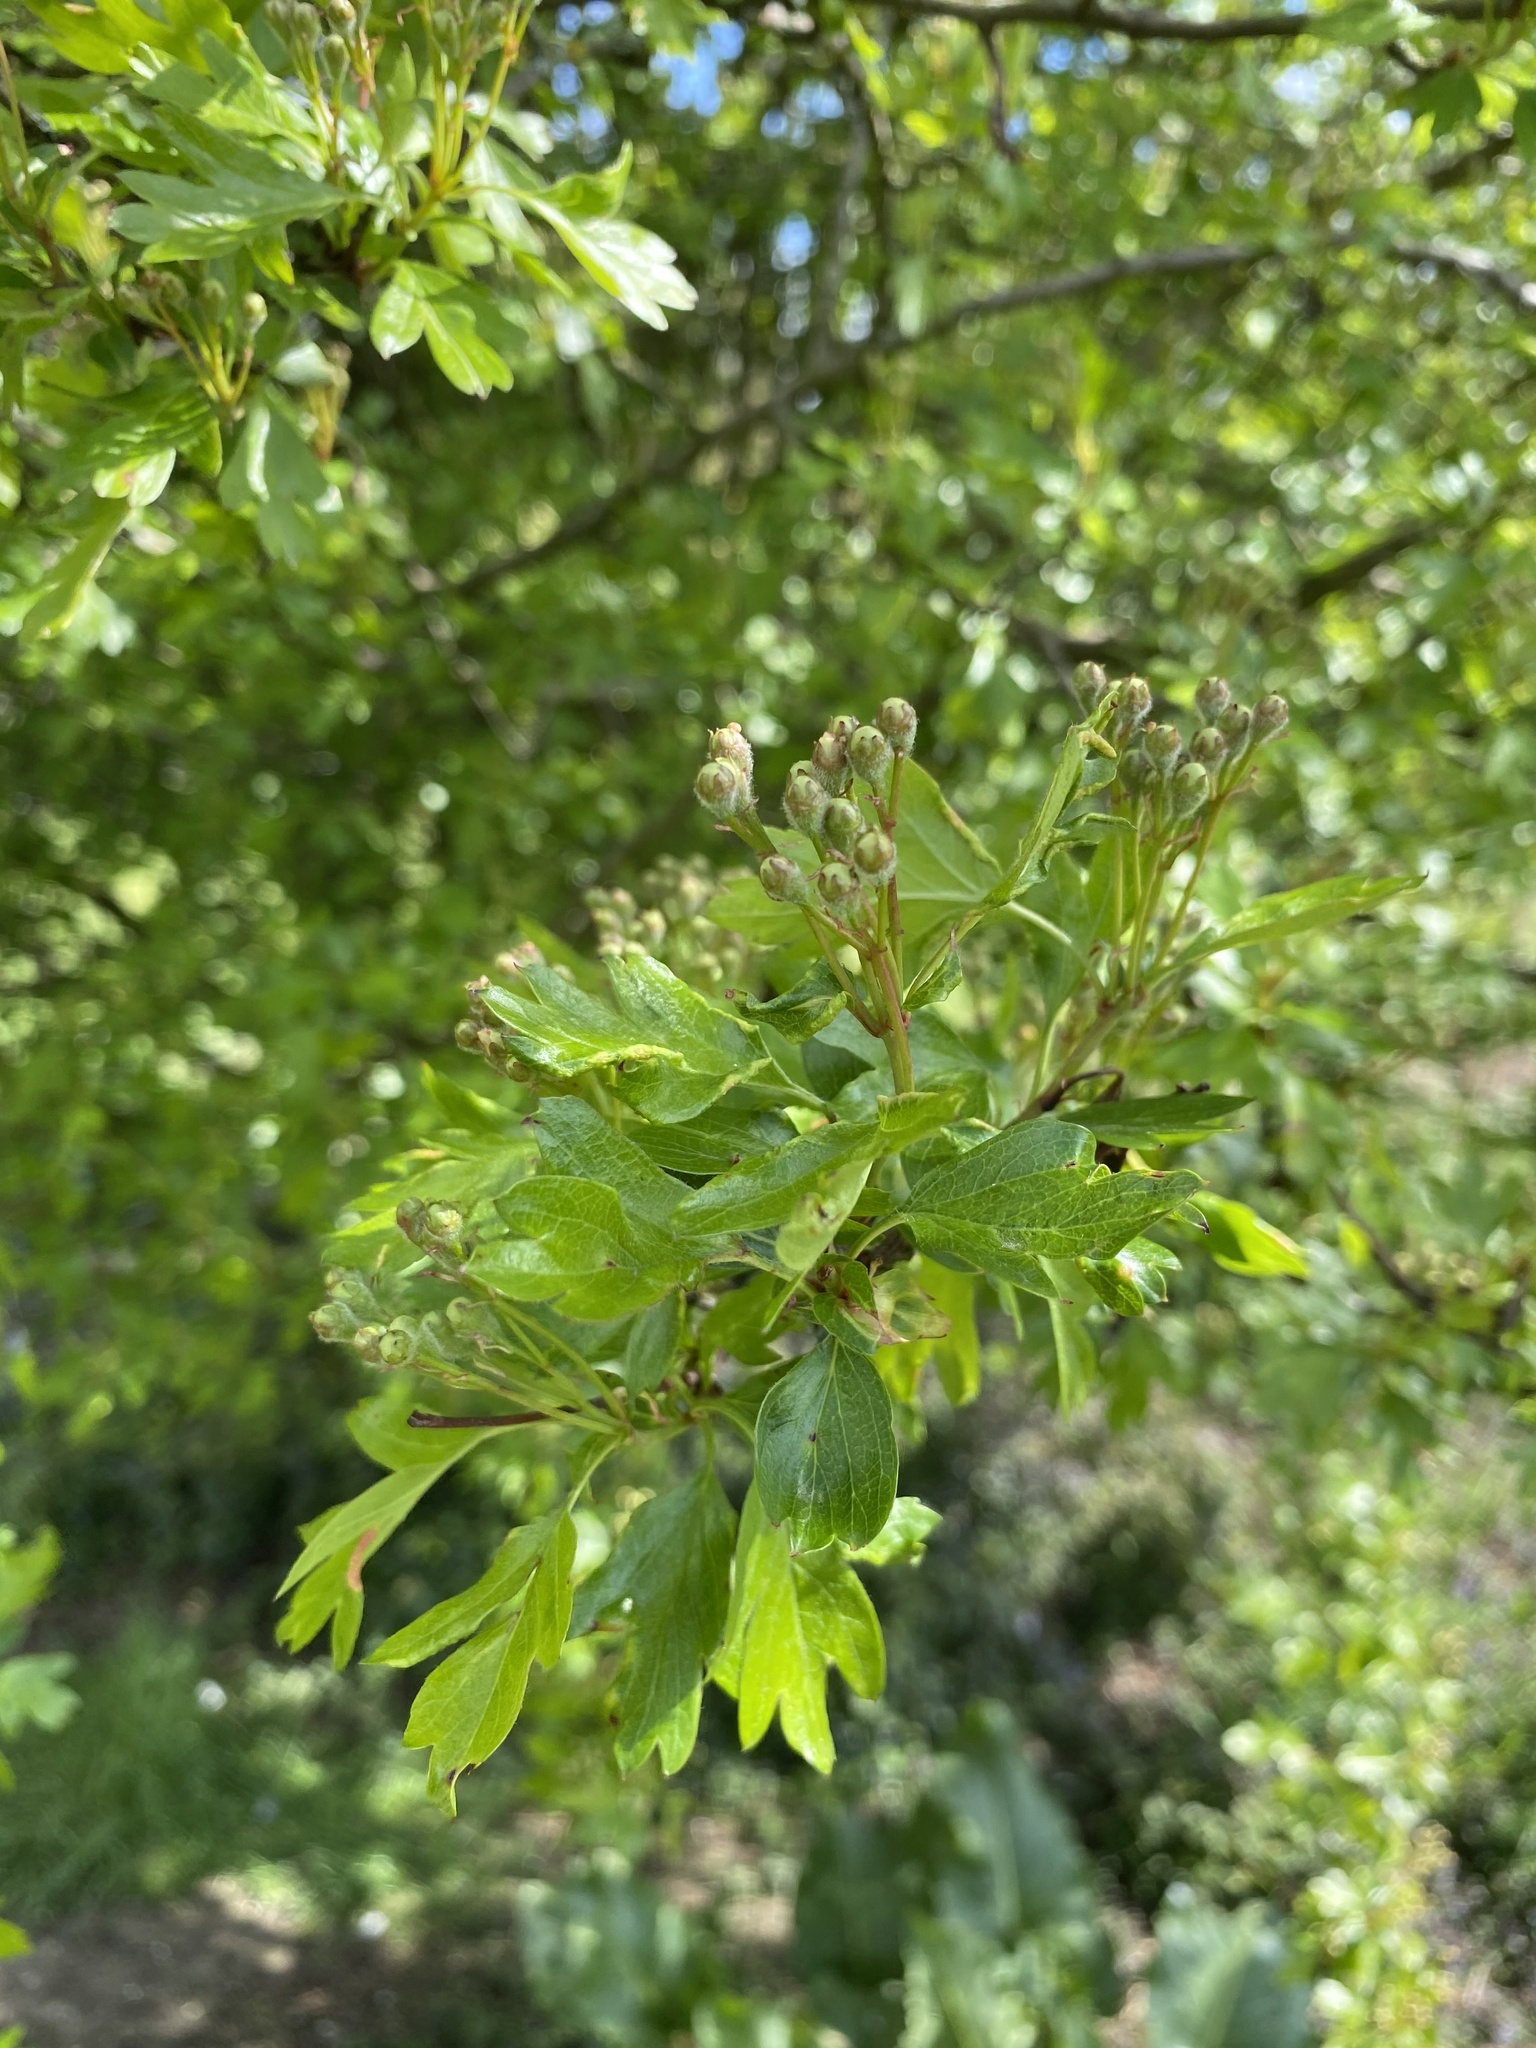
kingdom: Plantae
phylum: Tracheophyta
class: Magnoliopsida
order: Rosales
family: Rosaceae
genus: Crataegus
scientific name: Crataegus monogyna
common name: Hawthorn
